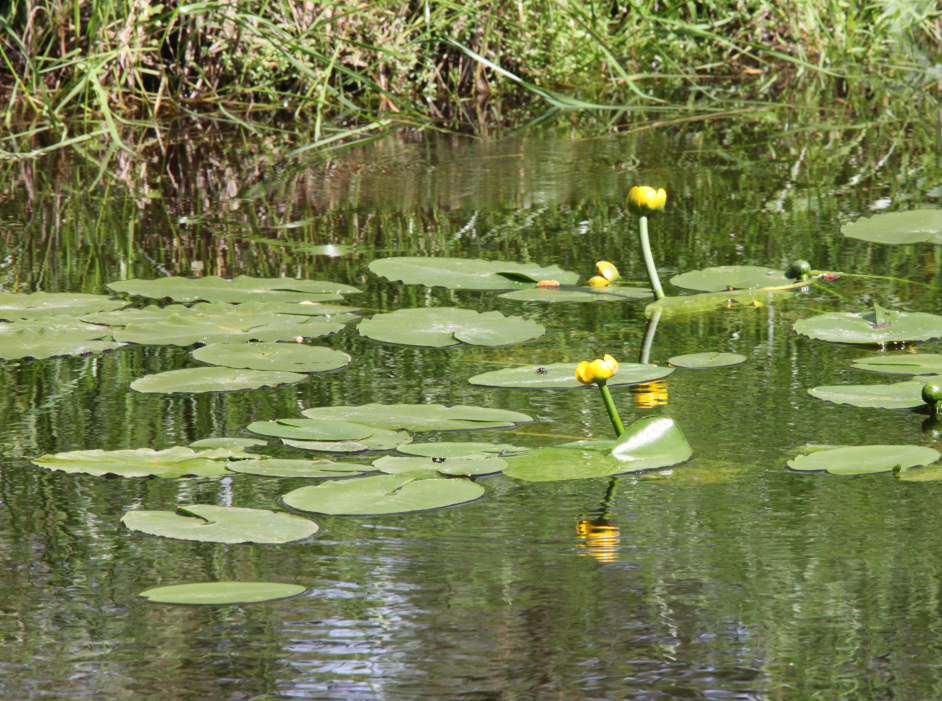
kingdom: Plantae
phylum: Tracheophyta
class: Magnoliopsida
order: Nymphaeales
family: Nymphaeaceae
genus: Nuphar
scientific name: Nuphar lutea
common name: Yellow water-lily
